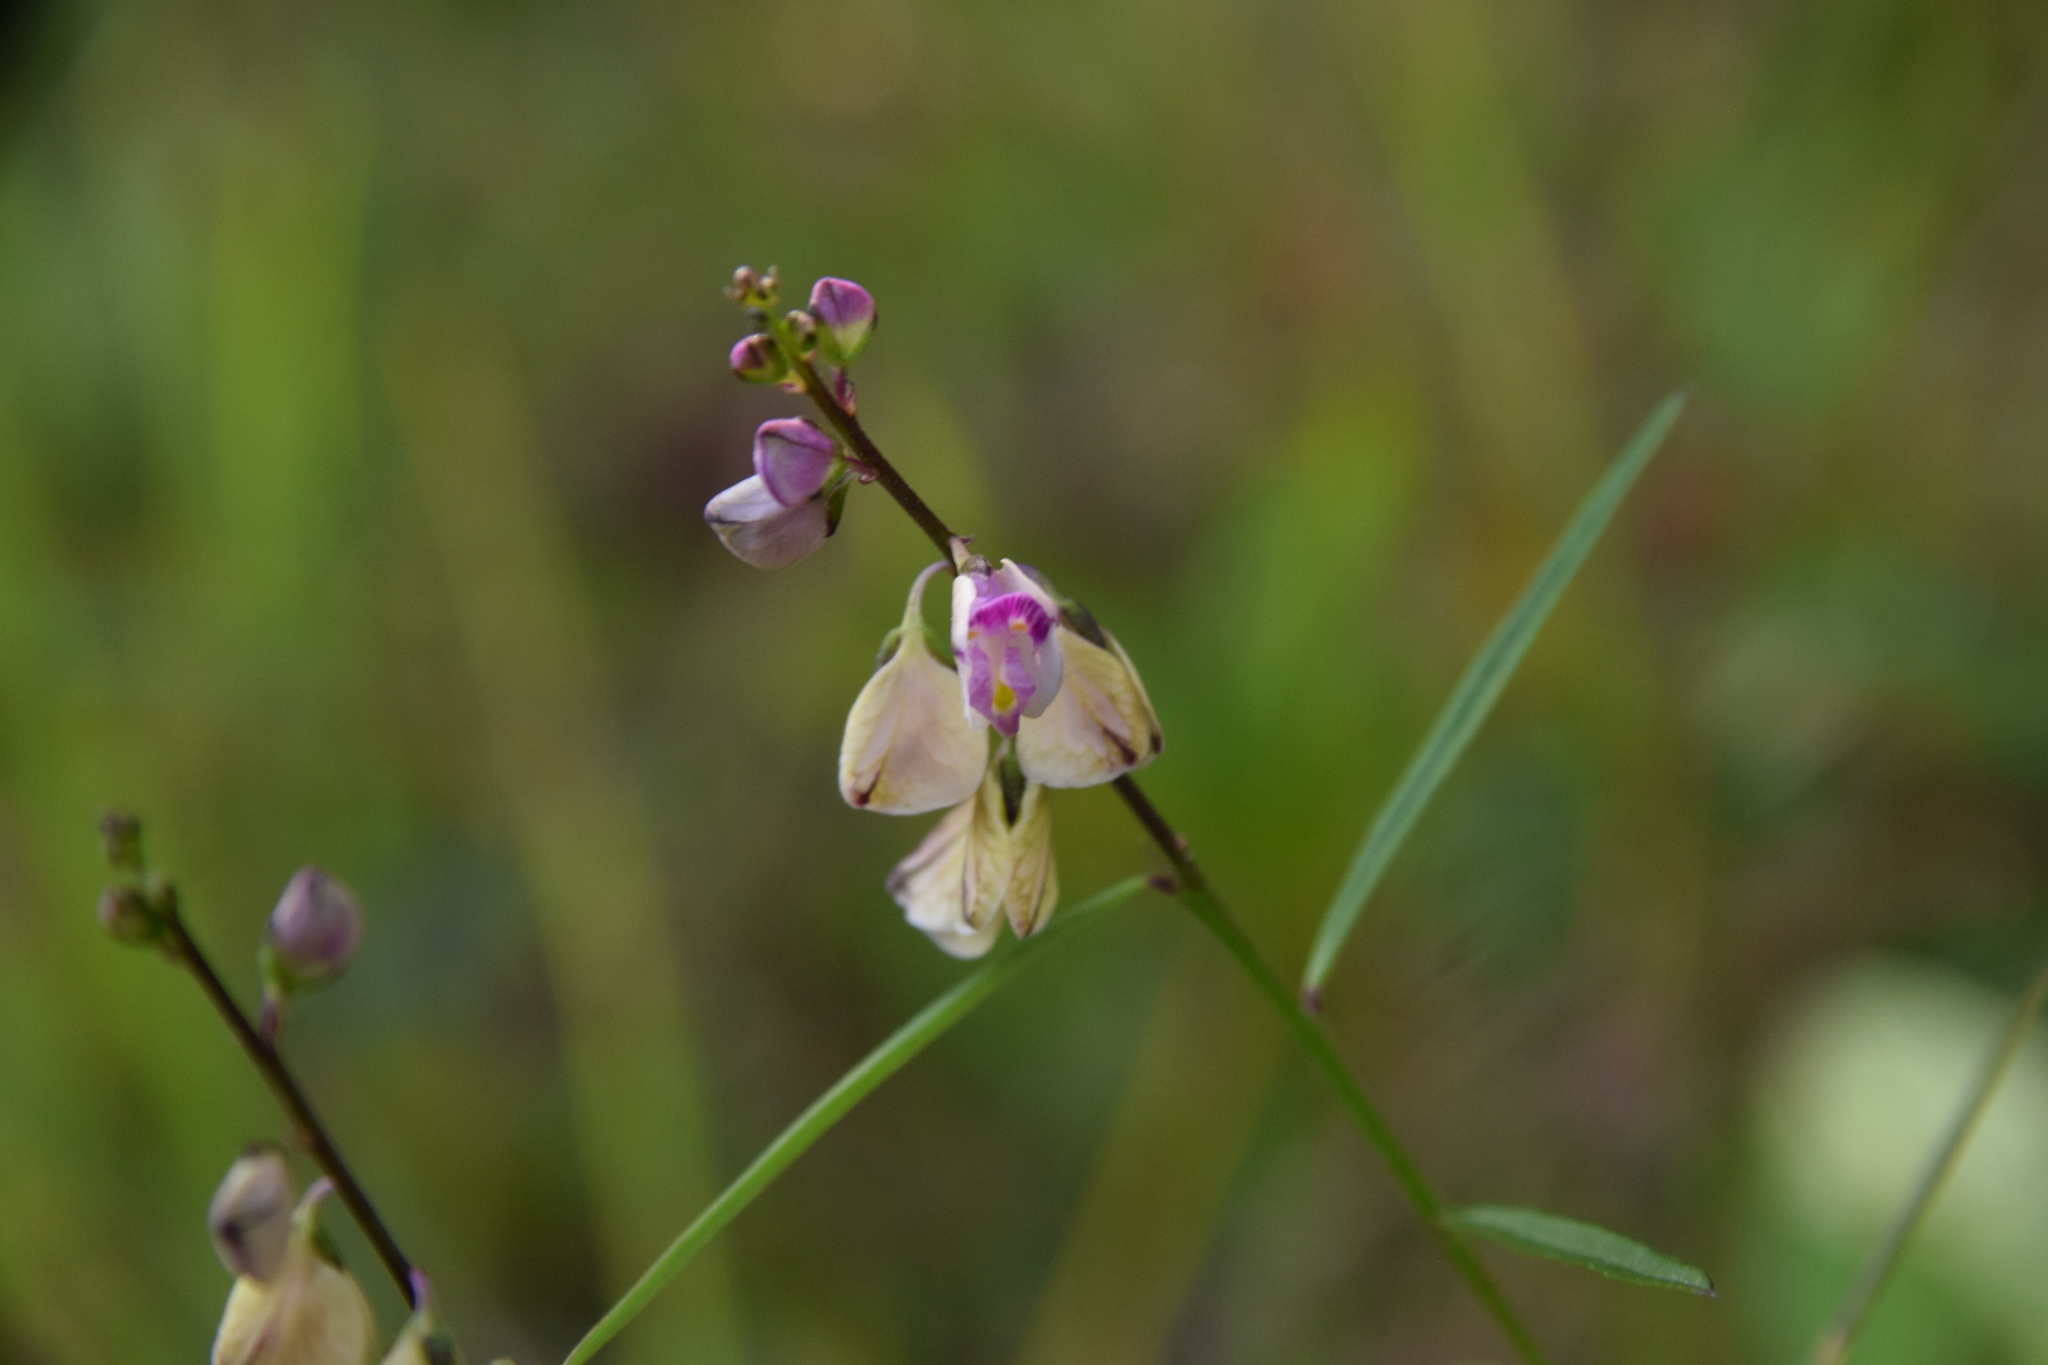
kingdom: Plantae
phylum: Tracheophyta
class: Magnoliopsida
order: Fabales
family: Polygalaceae
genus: Asemeia
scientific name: Asemeia grandiflora
